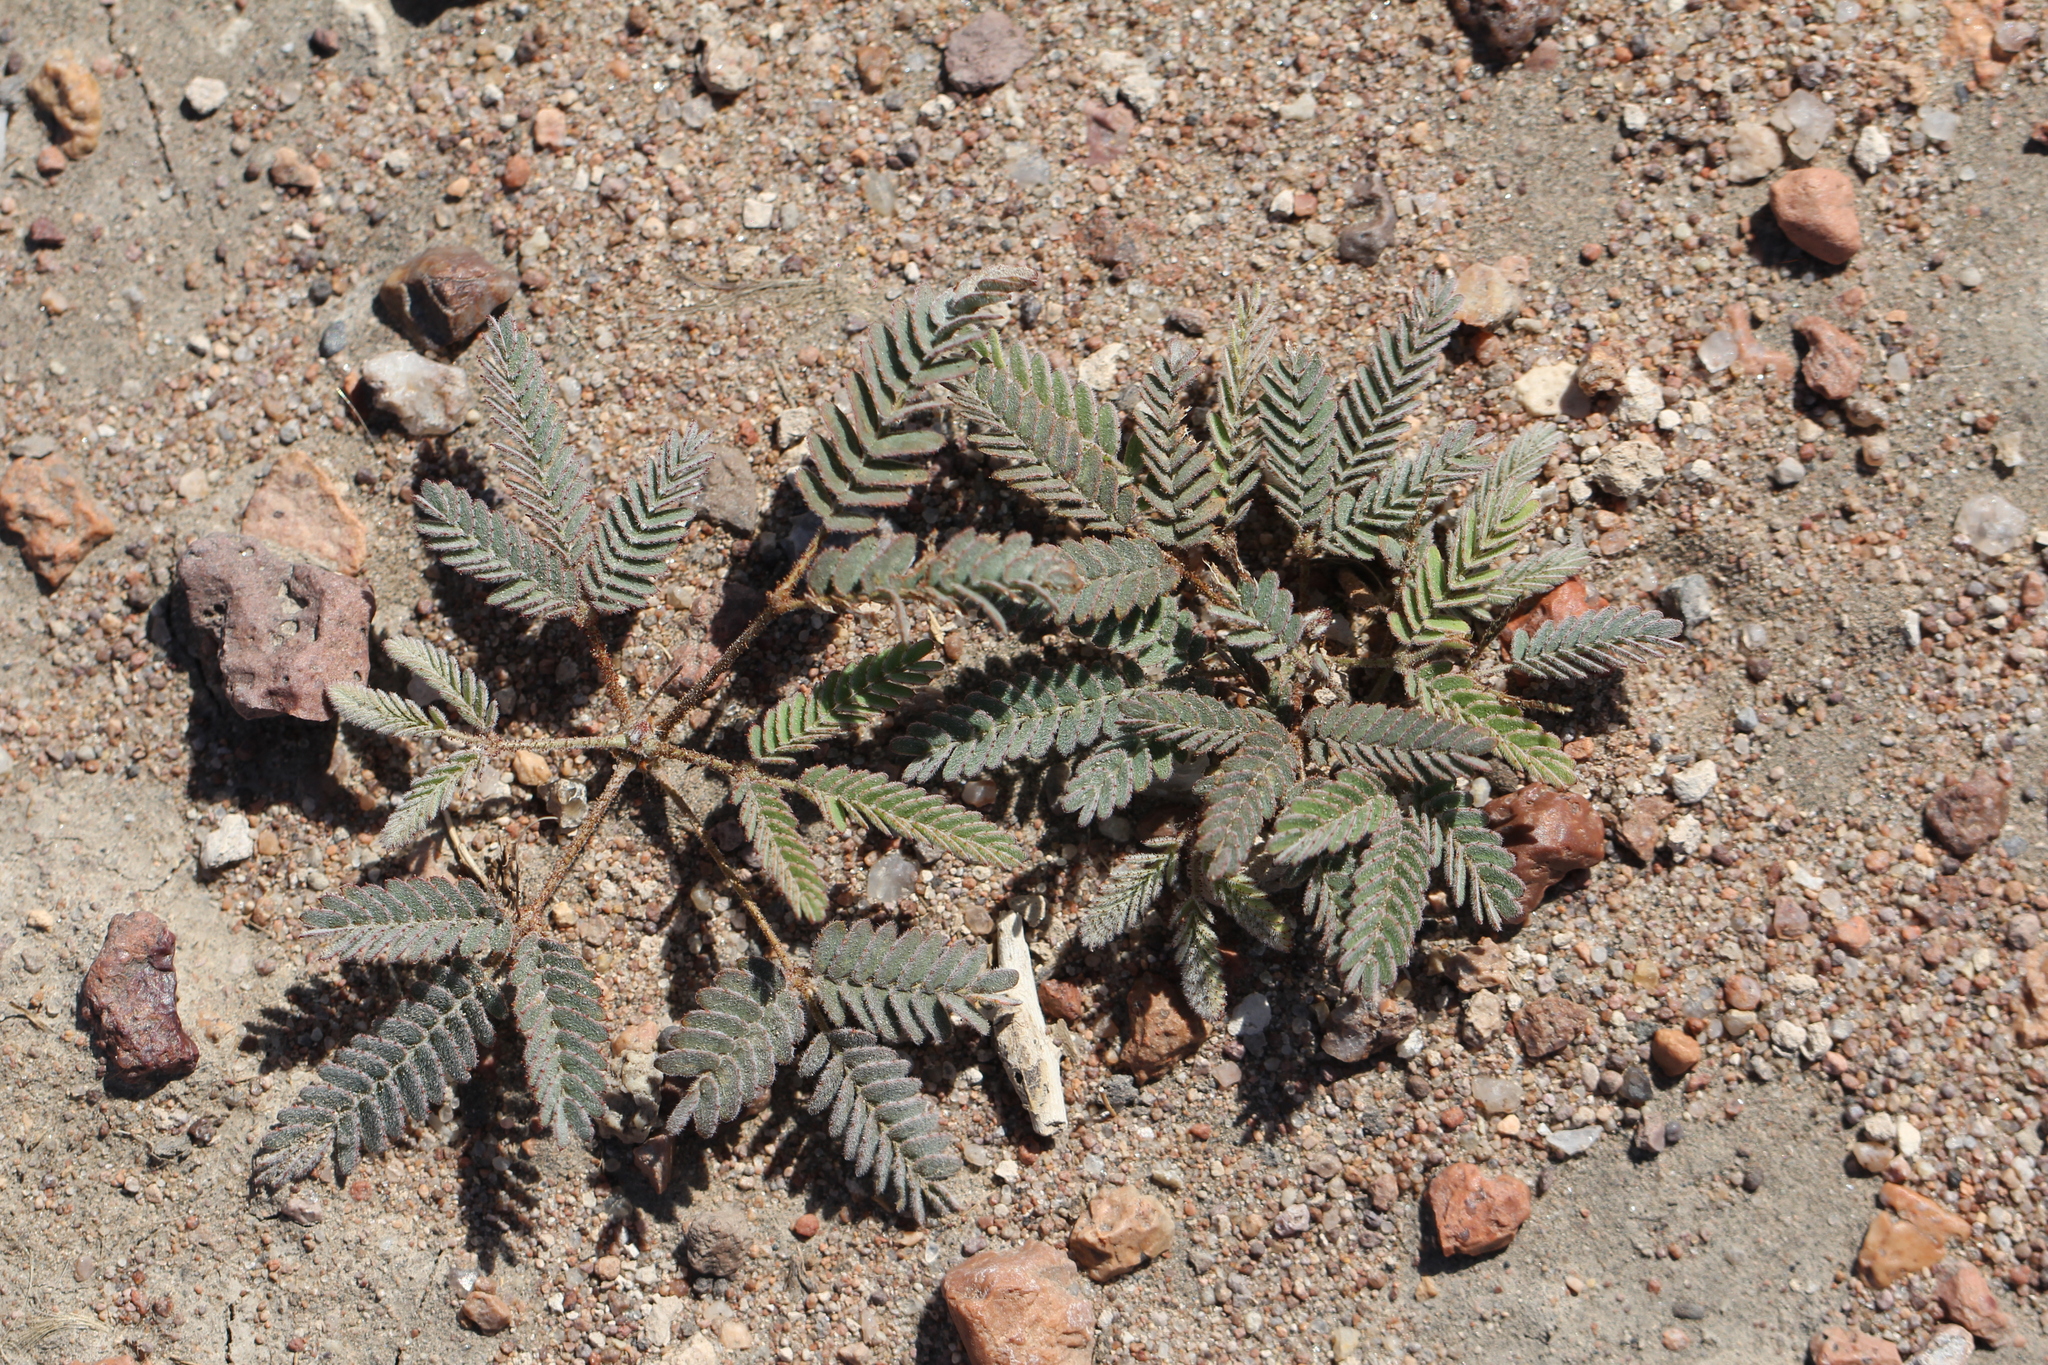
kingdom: Plantae
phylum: Tracheophyta
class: Magnoliopsida
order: Fabales
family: Fabaceae
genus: Hoffmannseggia
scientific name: Hoffmannseggia trifoliata
